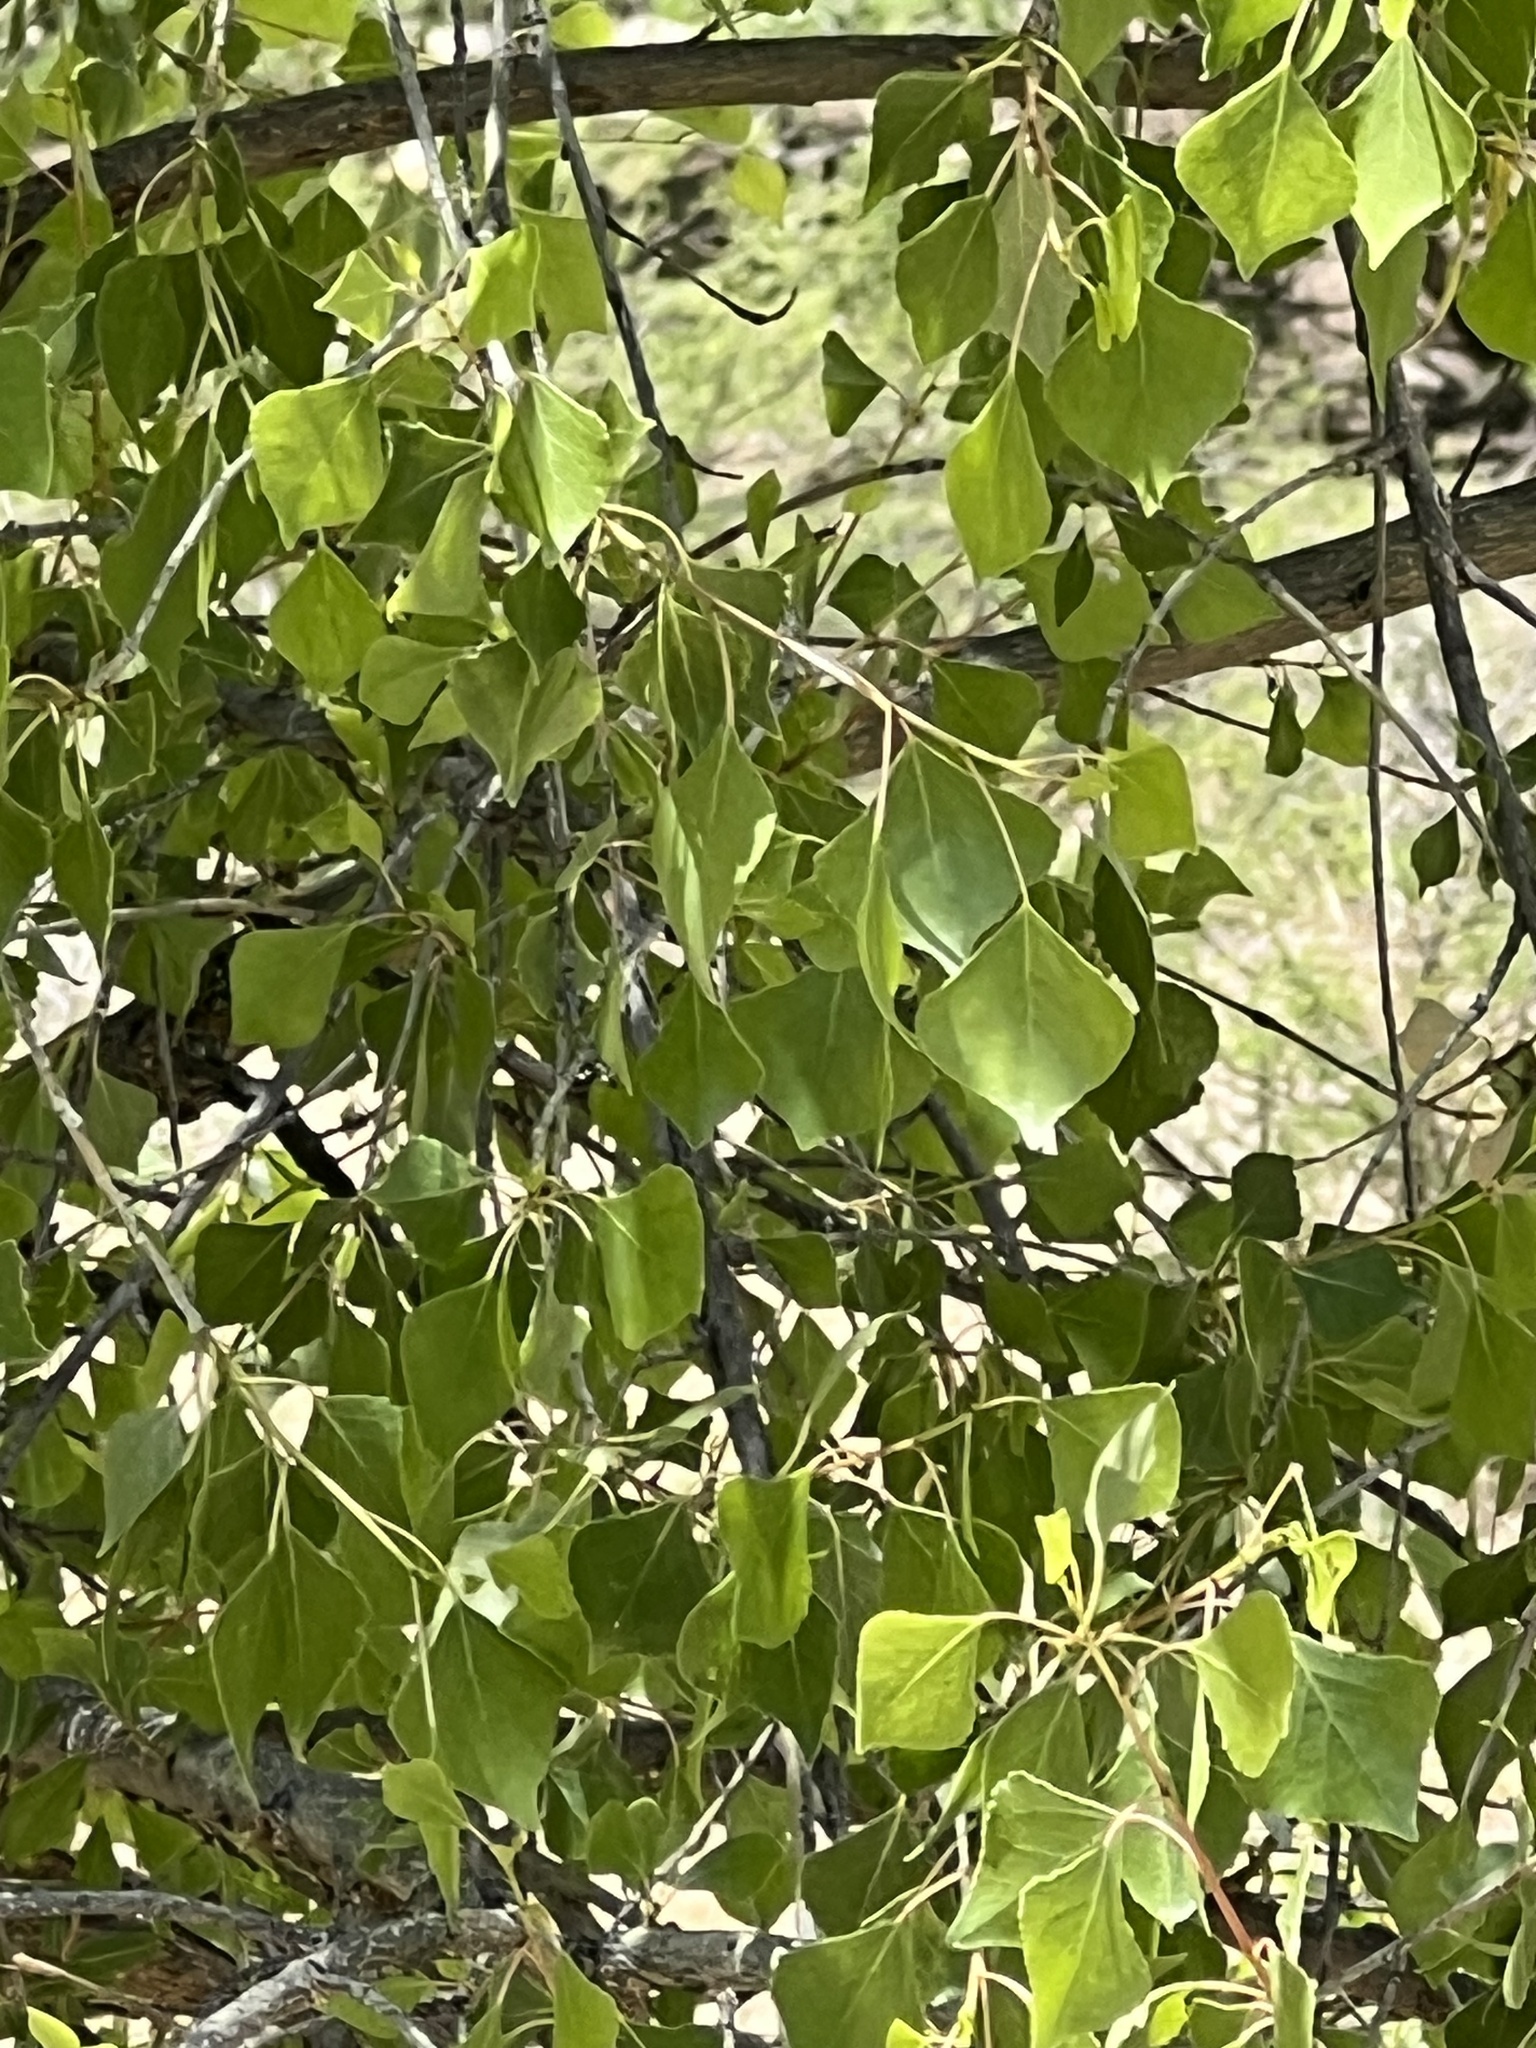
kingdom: Plantae
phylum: Tracheophyta
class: Magnoliopsida
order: Malpighiales
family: Salicaceae
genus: Populus
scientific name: Populus fremontii
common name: Fremont's cottonwood
